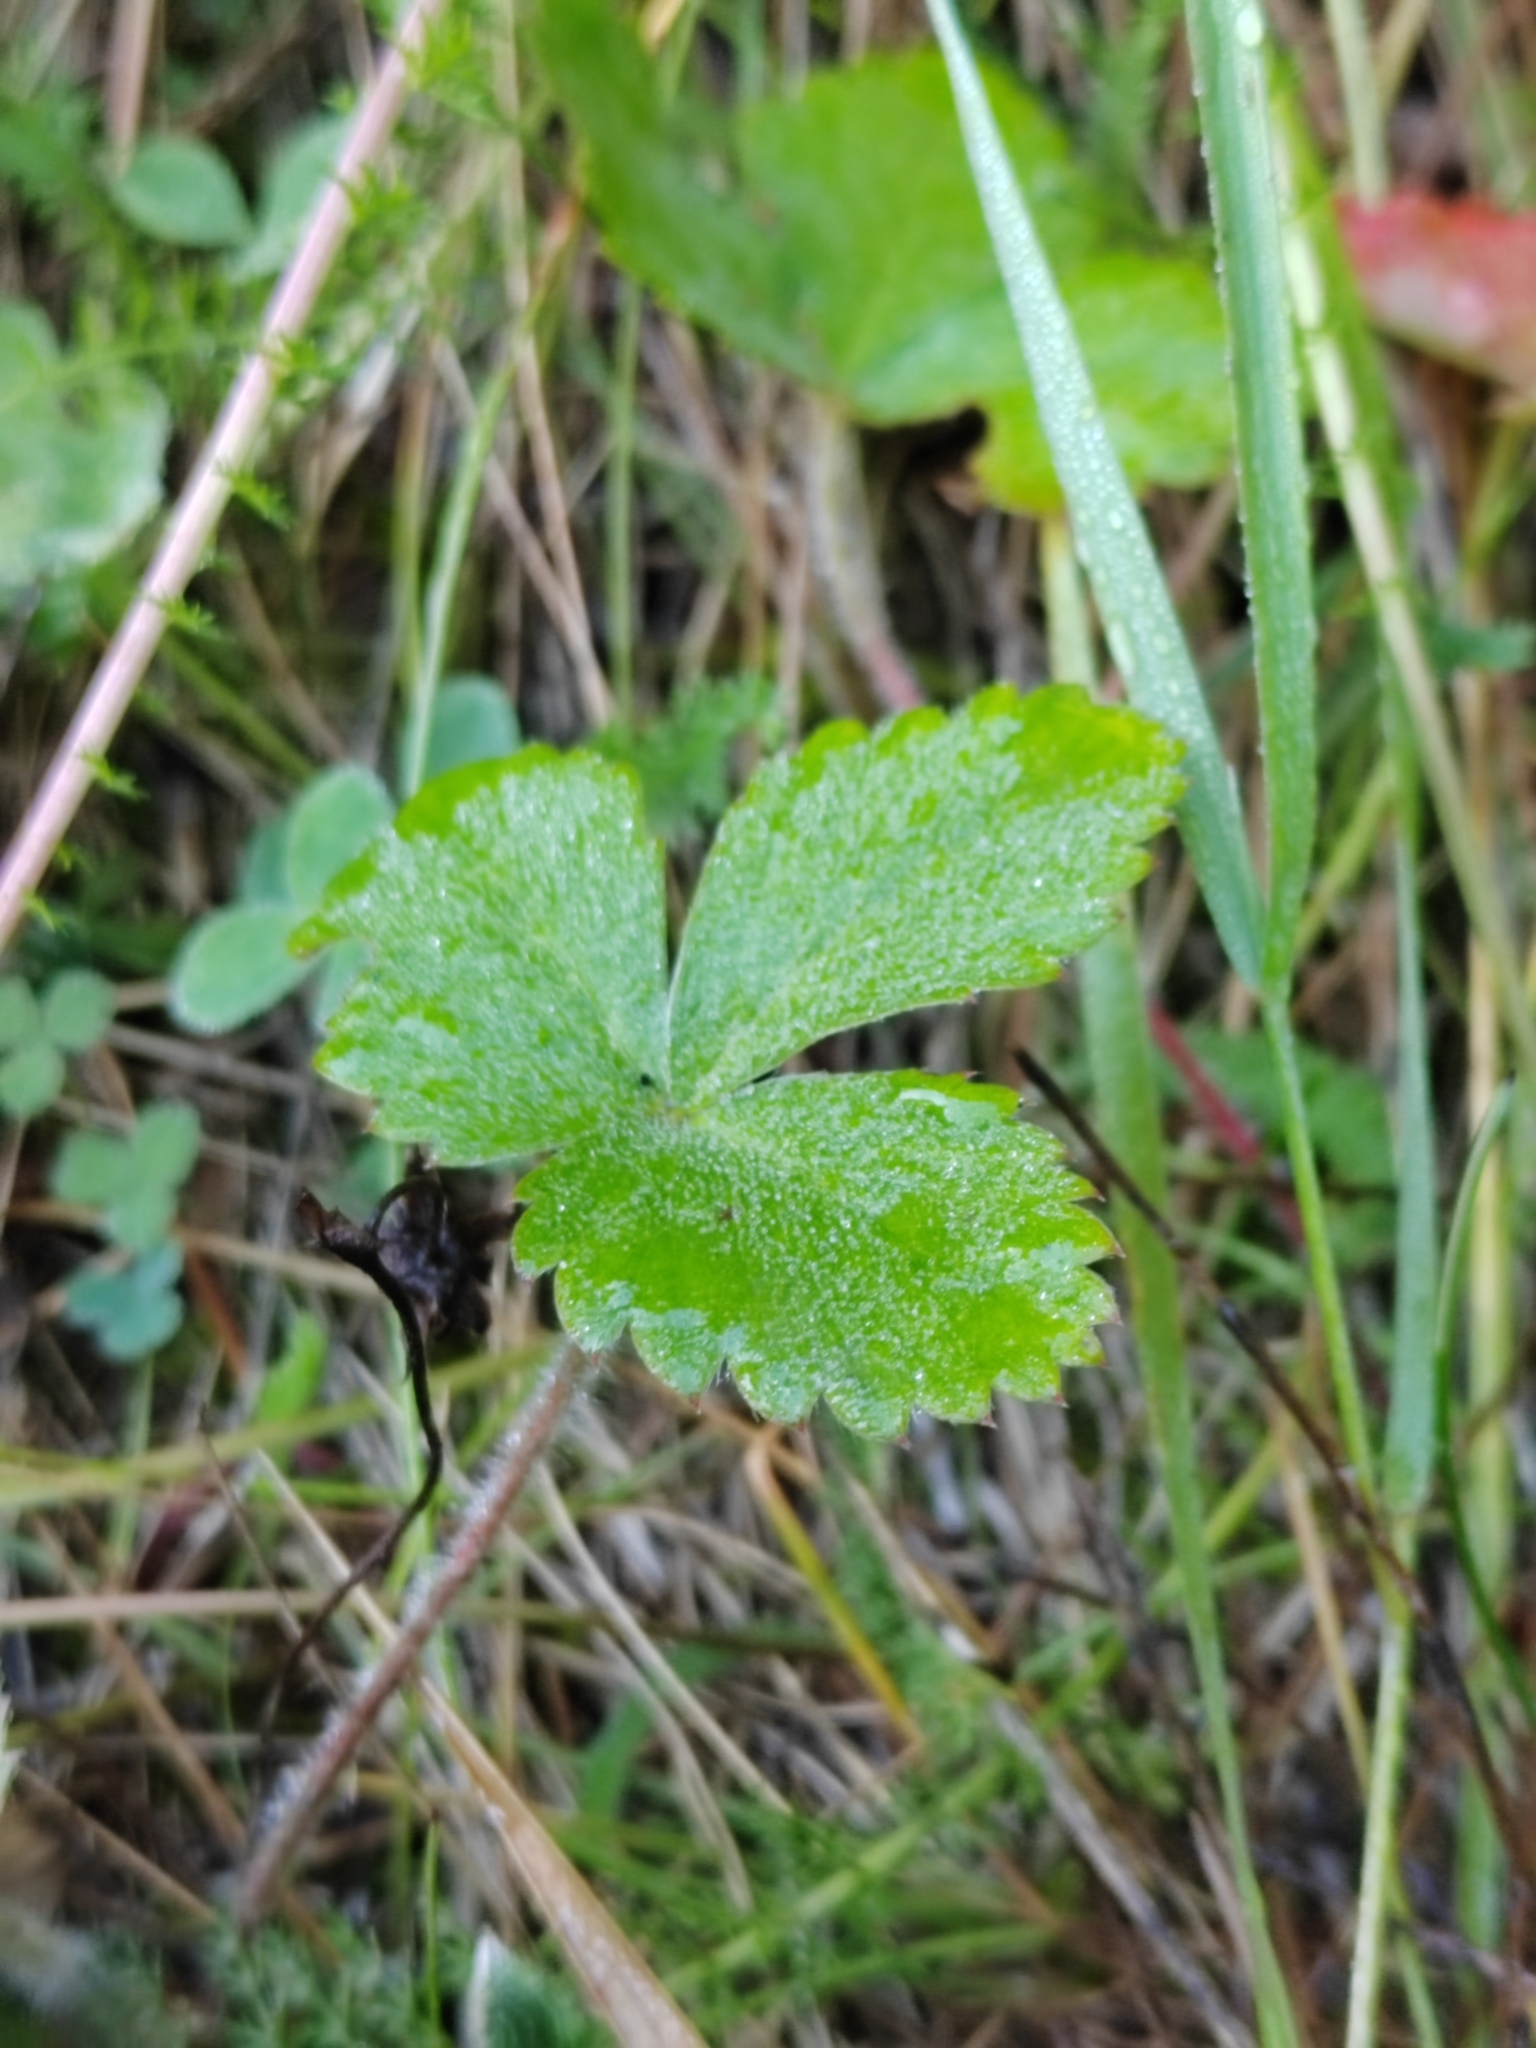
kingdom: Plantae
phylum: Tracheophyta
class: Magnoliopsida
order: Rosales
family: Rosaceae
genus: Fragaria
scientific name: Fragaria vesca
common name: Wild strawberry
